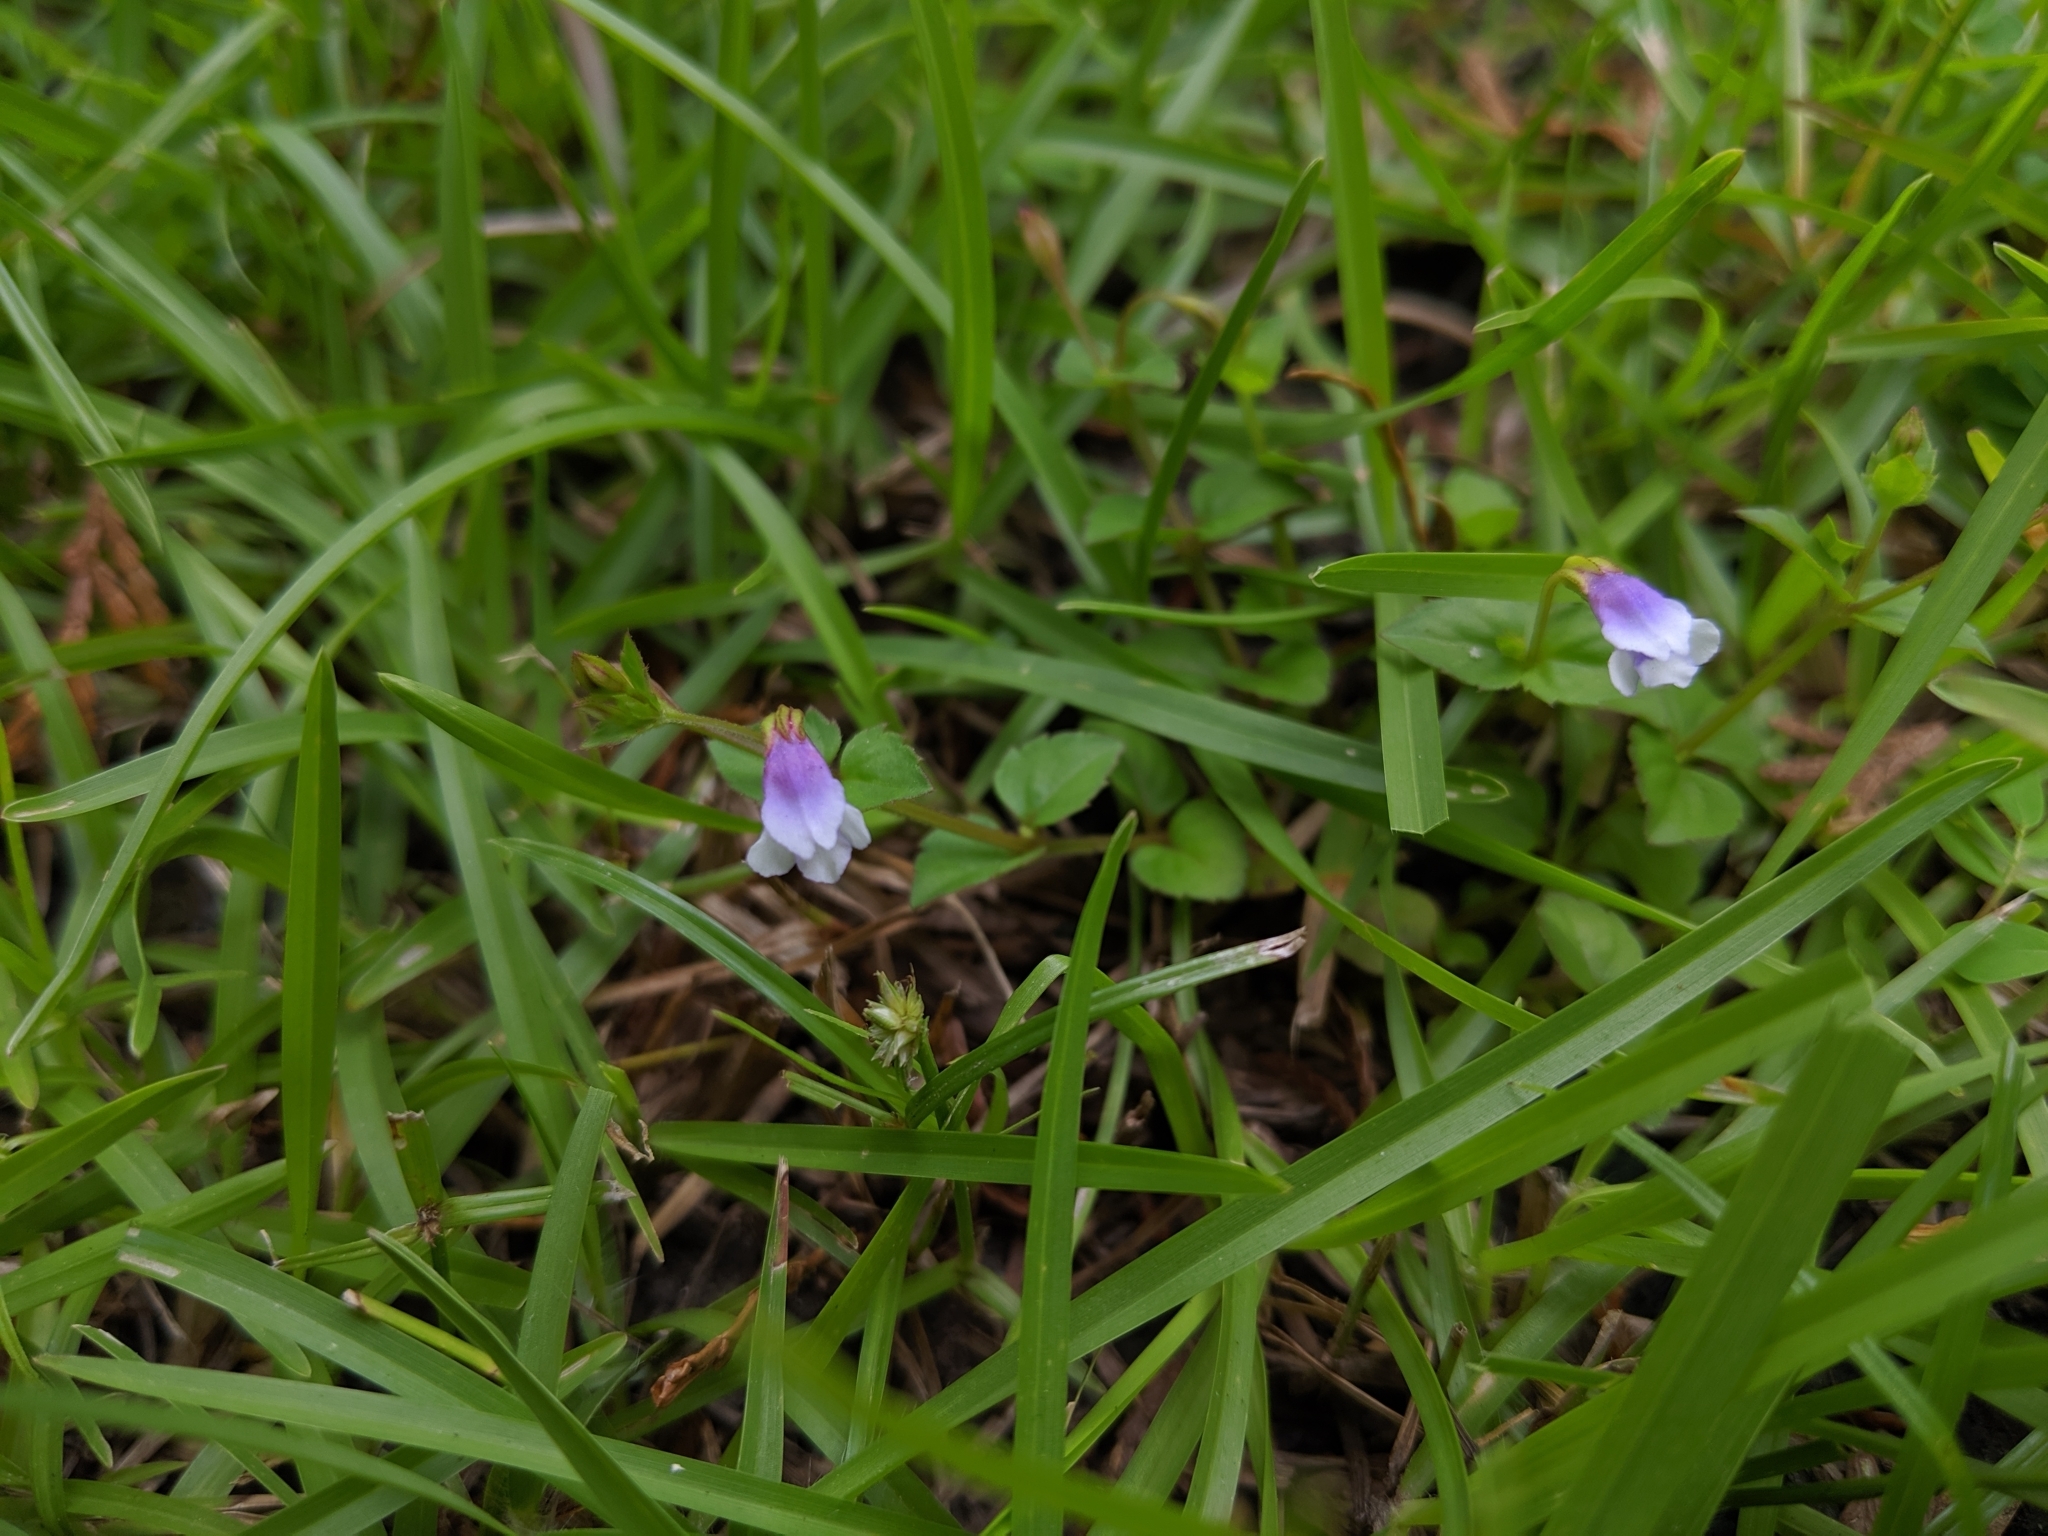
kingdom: Plantae
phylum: Tracheophyta
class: Magnoliopsida
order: Lamiales
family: Linderniaceae
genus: Torenia
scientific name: Torenia crustacea
